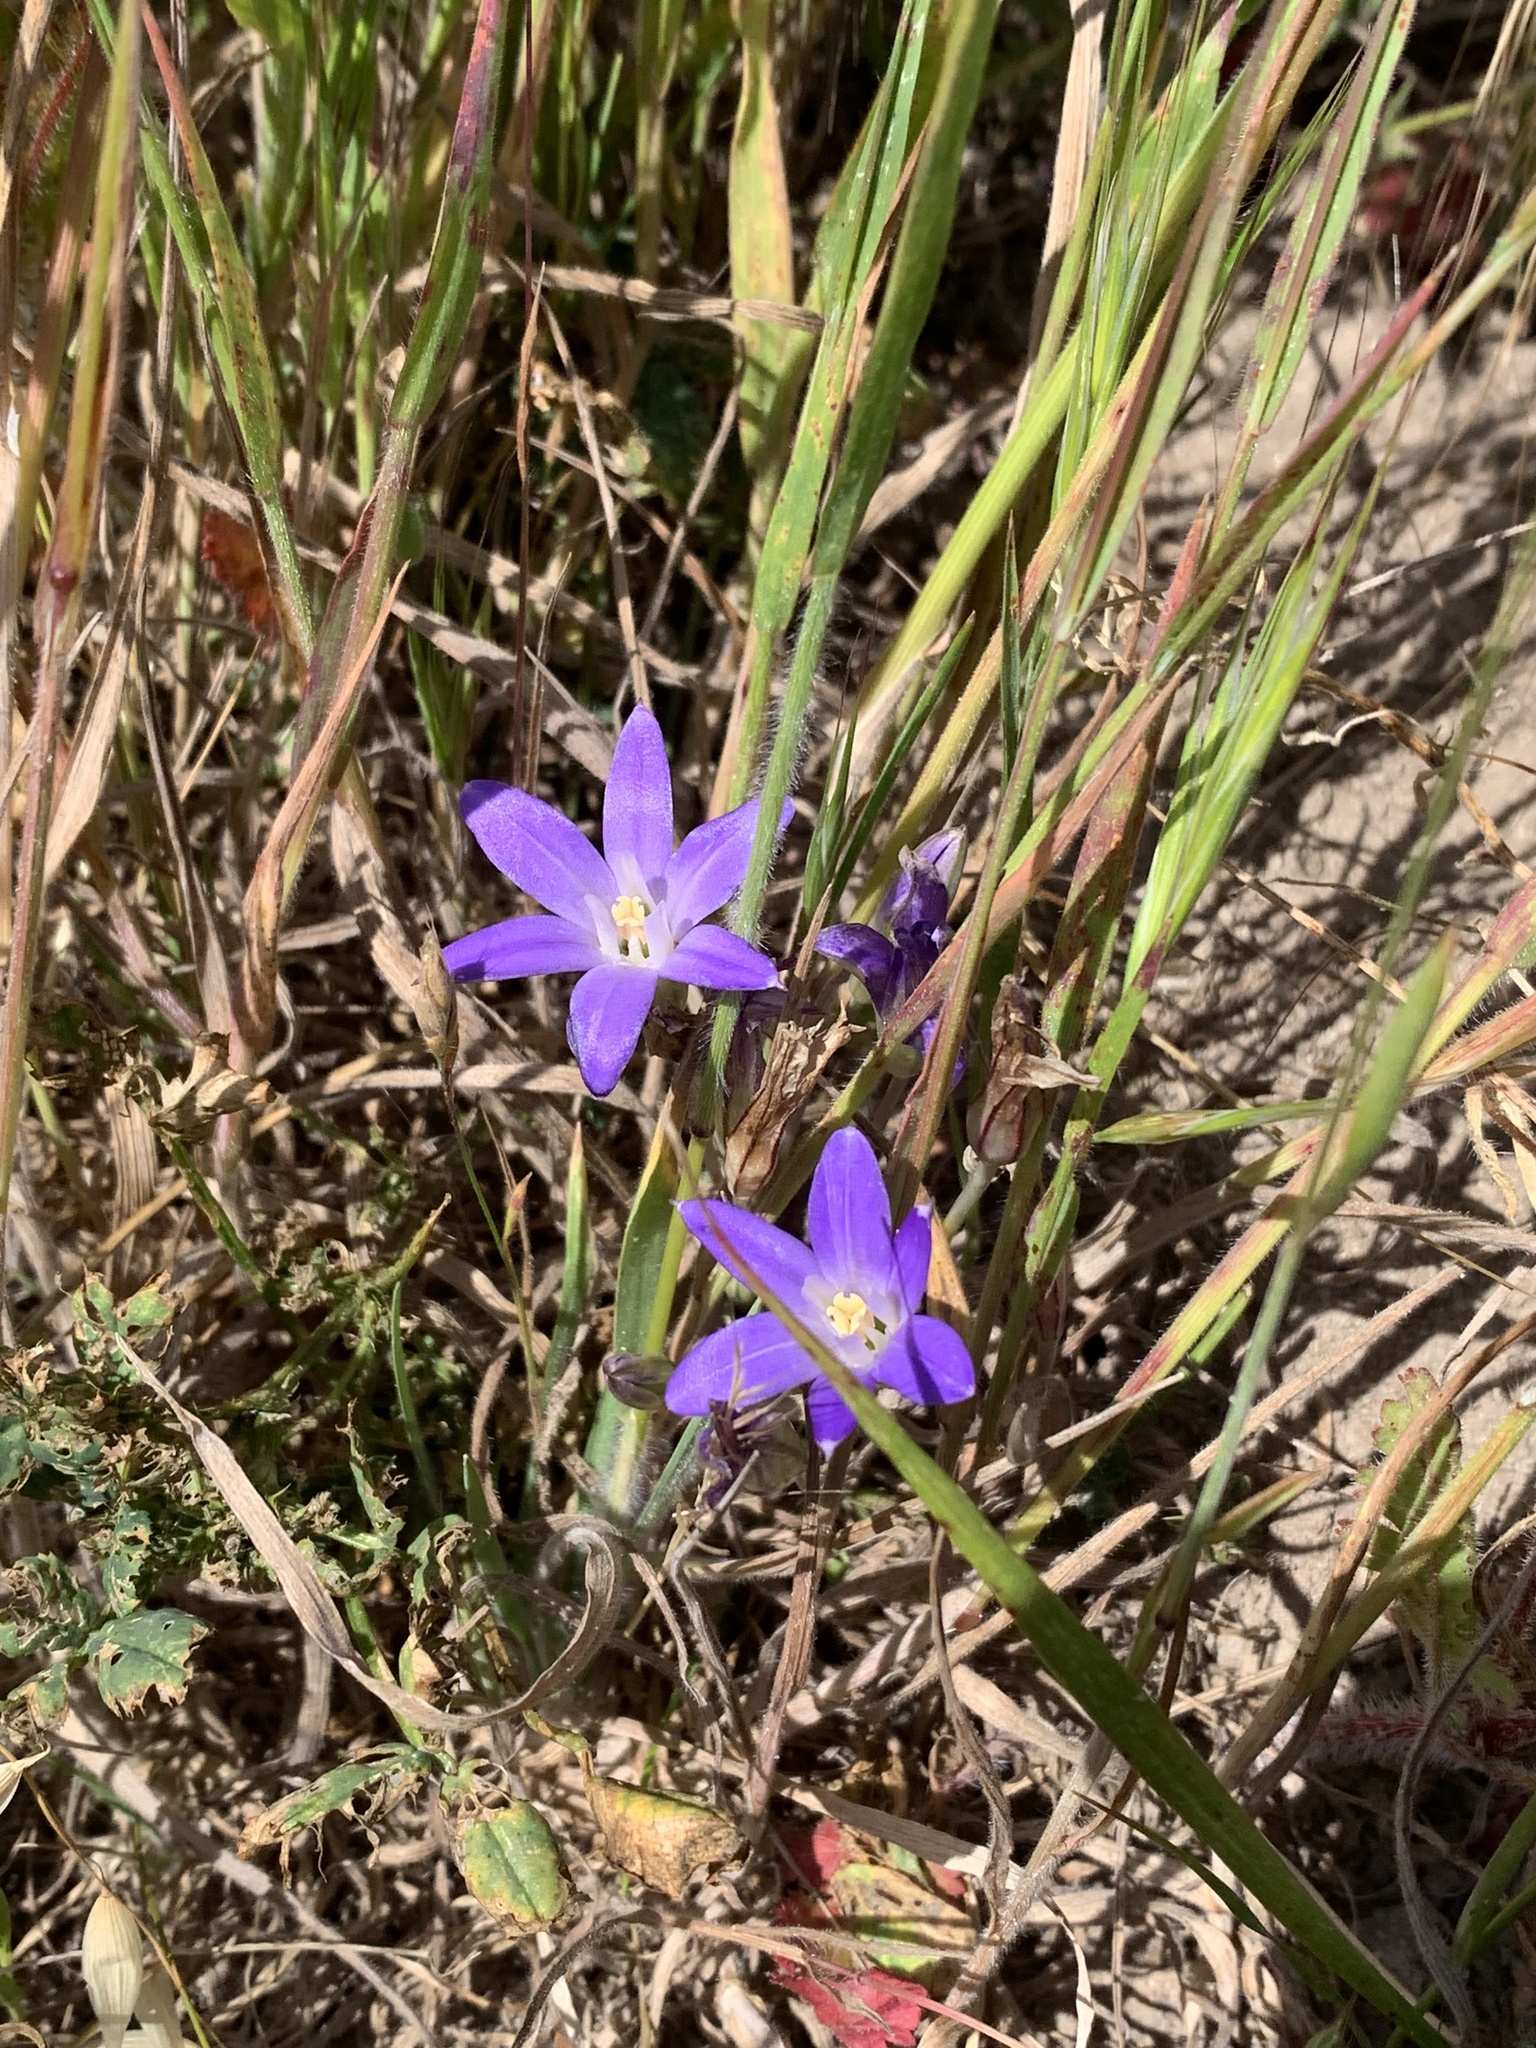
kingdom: Plantae
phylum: Tracheophyta
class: Liliopsida
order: Asparagales
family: Asparagaceae
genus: Brodiaea
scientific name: Brodiaea terrestris
